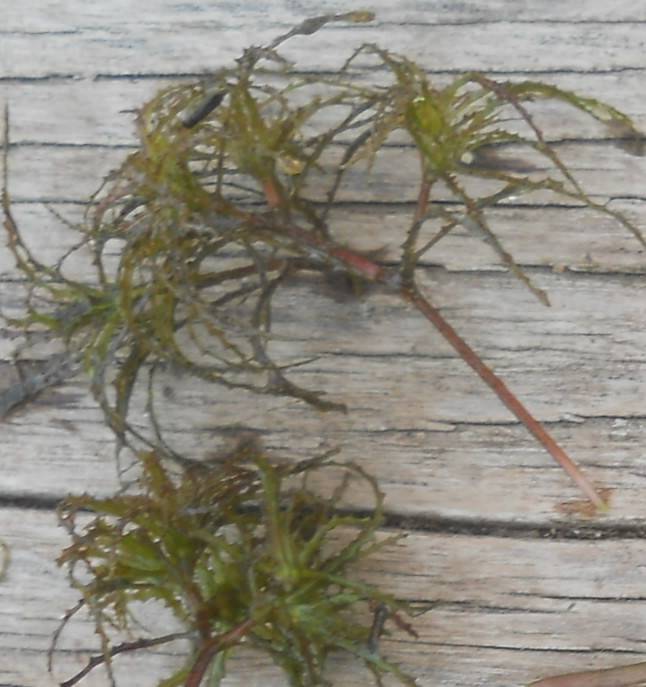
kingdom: Plantae
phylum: Tracheophyta
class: Liliopsida
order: Alismatales
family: Hydrocharitaceae
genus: Najas
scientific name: Najas minor
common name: Brittle naiad
